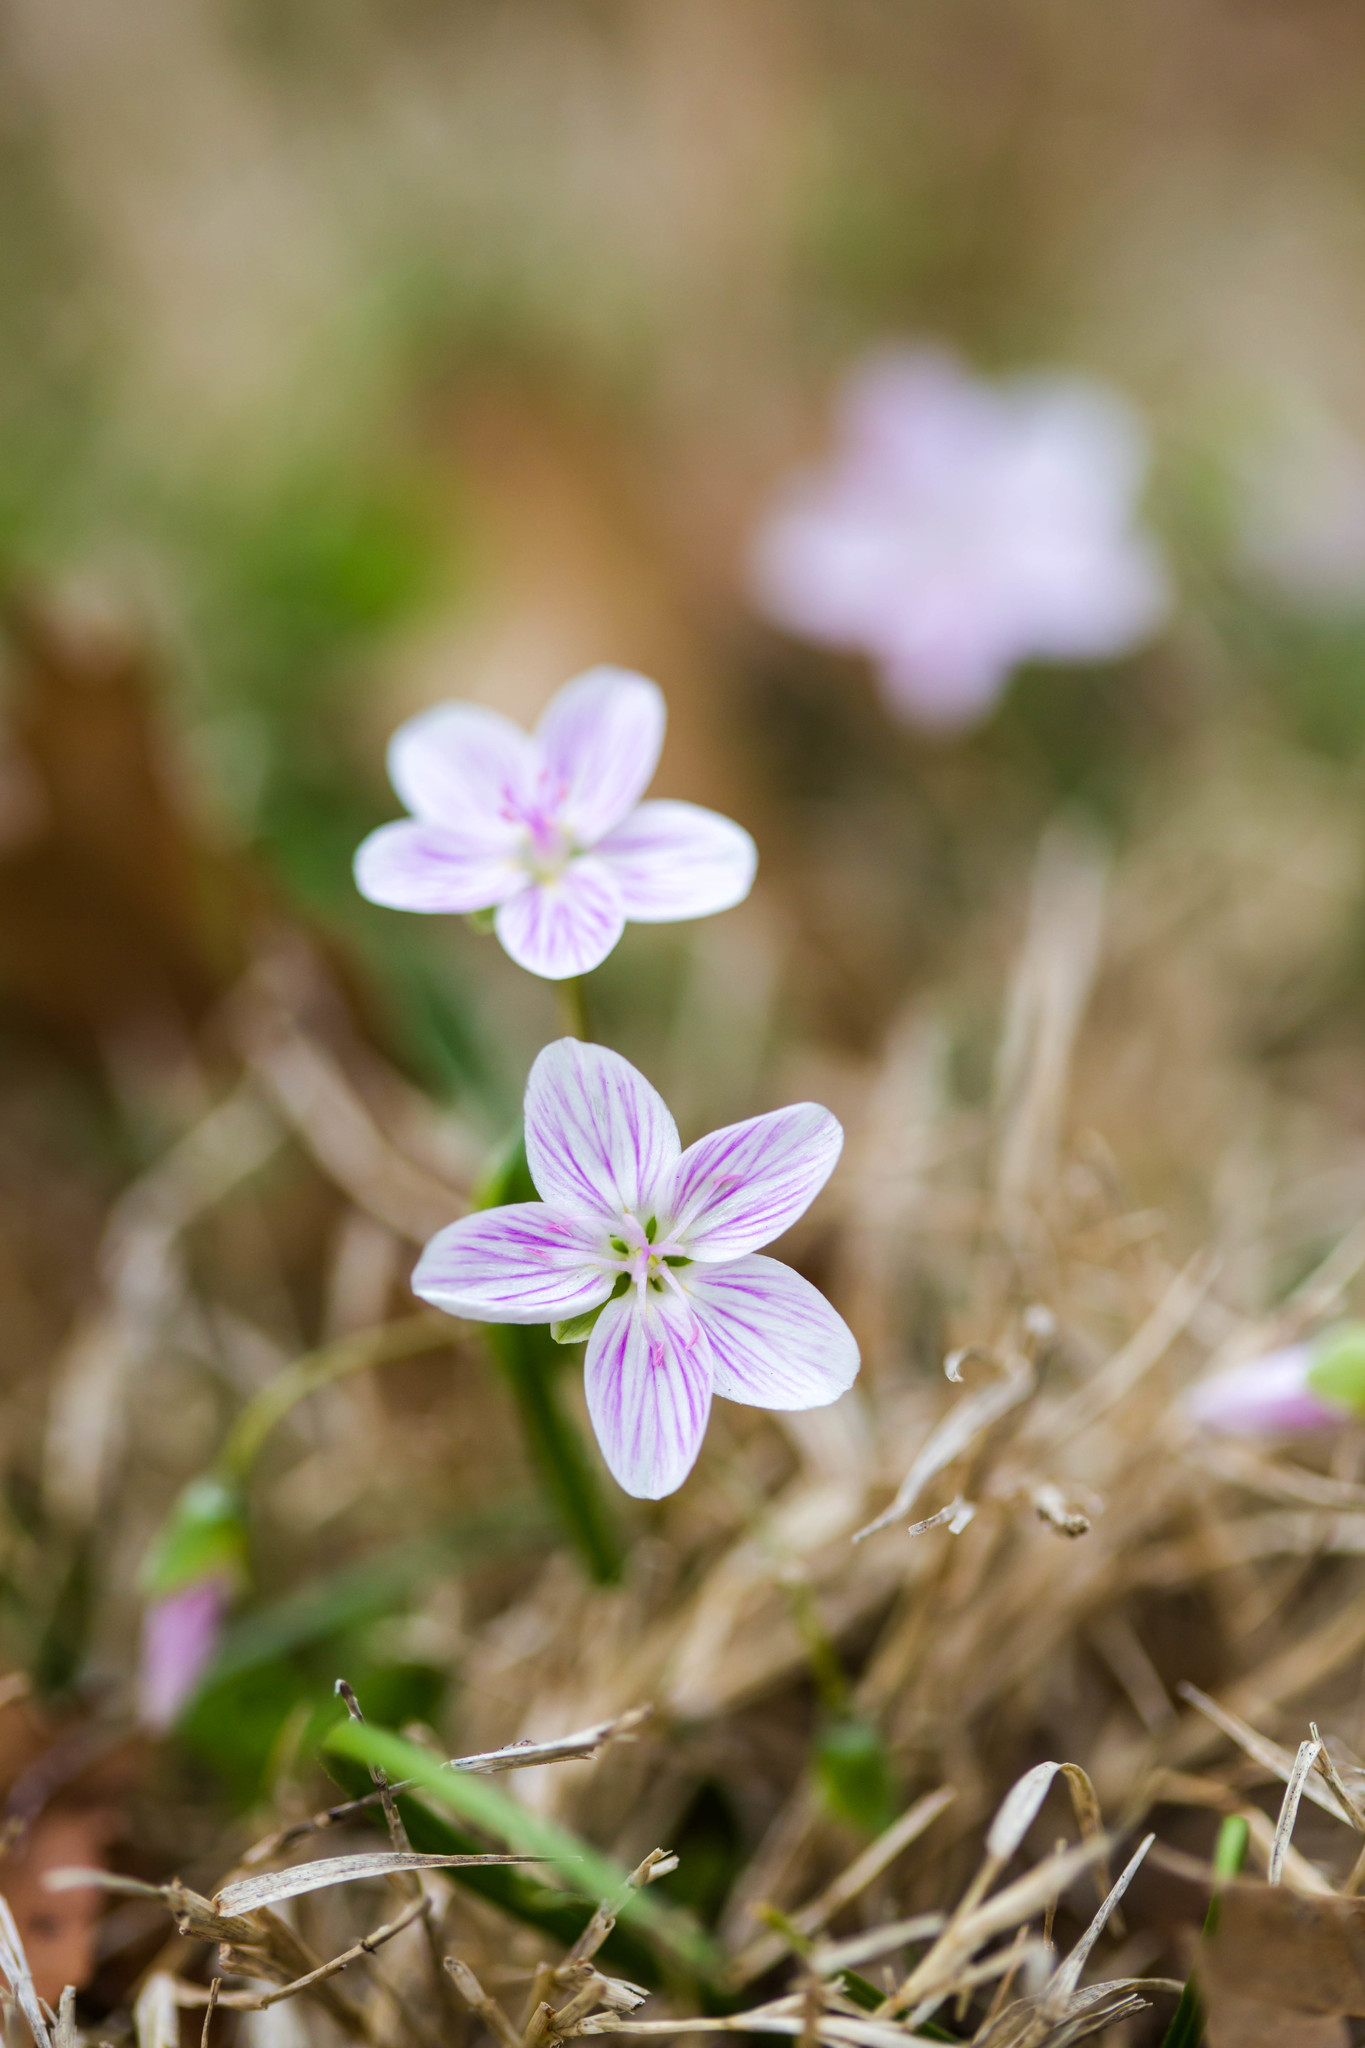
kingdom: Plantae
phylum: Tracheophyta
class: Magnoliopsida
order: Caryophyllales
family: Montiaceae
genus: Claytonia
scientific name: Claytonia virginica
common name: Virginia springbeauty
